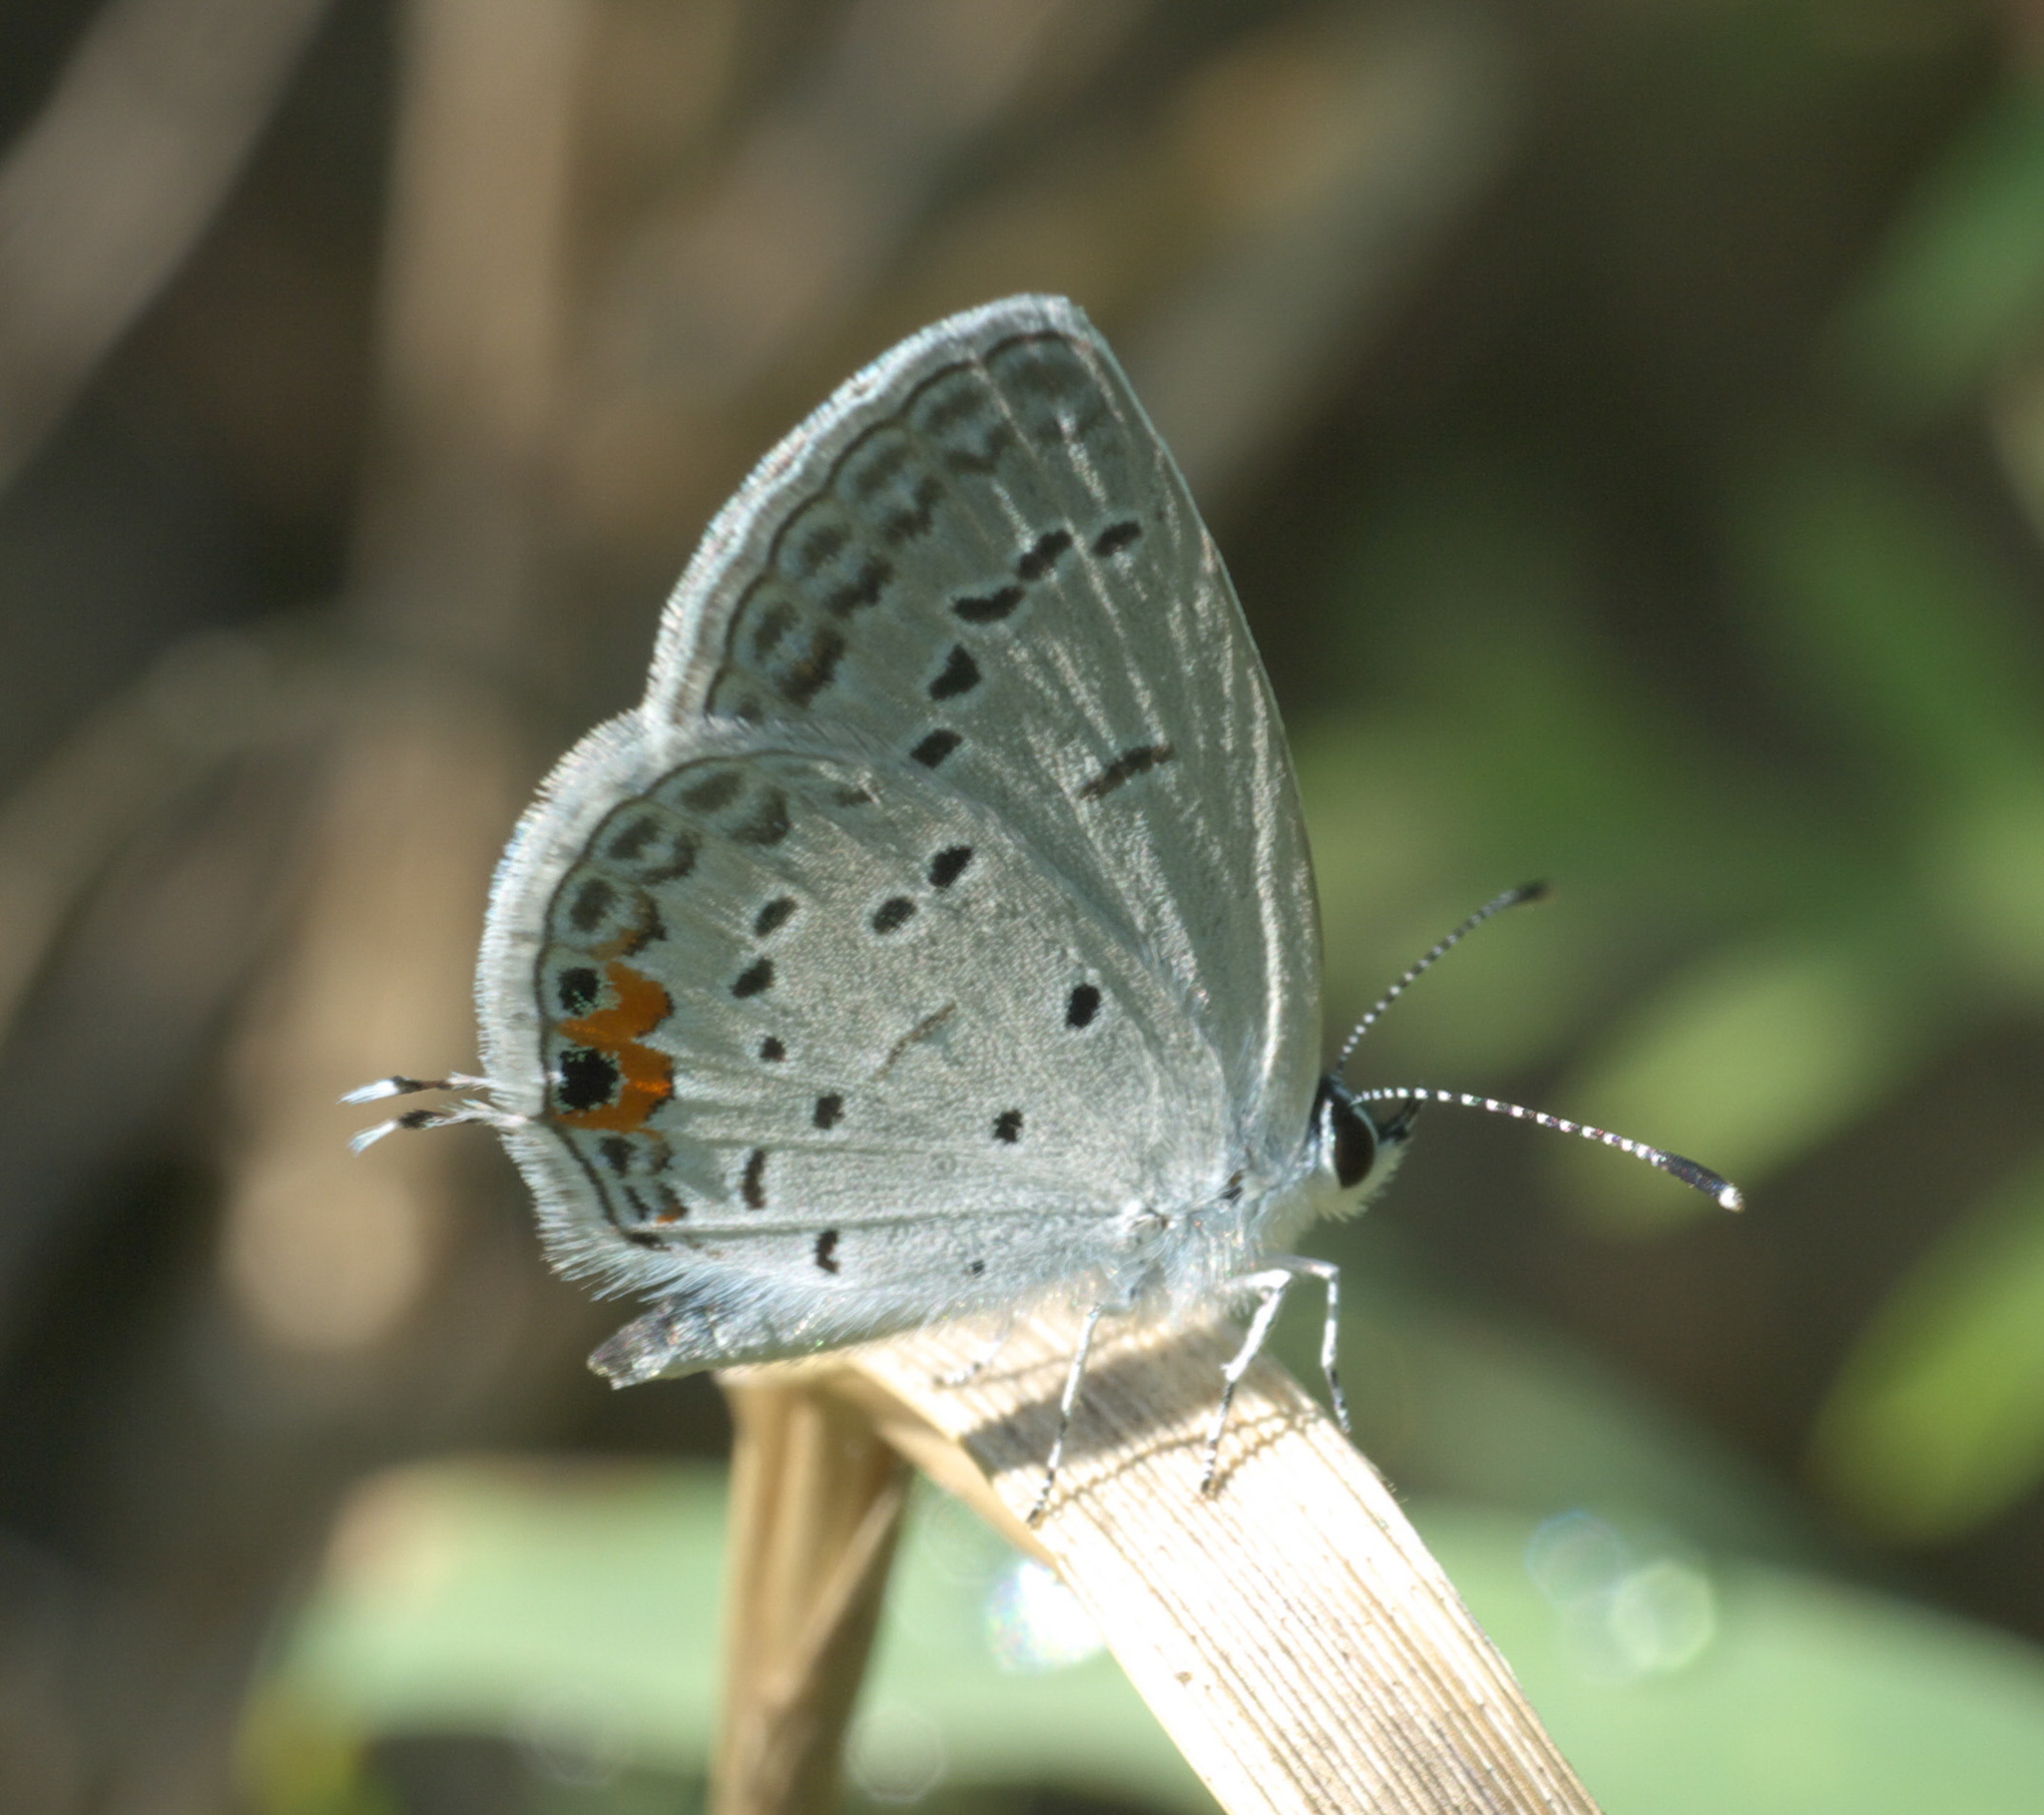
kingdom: Animalia
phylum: Arthropoda
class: Insecta
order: Lepidoptera
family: Lycaenidae
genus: Elkalyce
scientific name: Elkalyce comyntas
